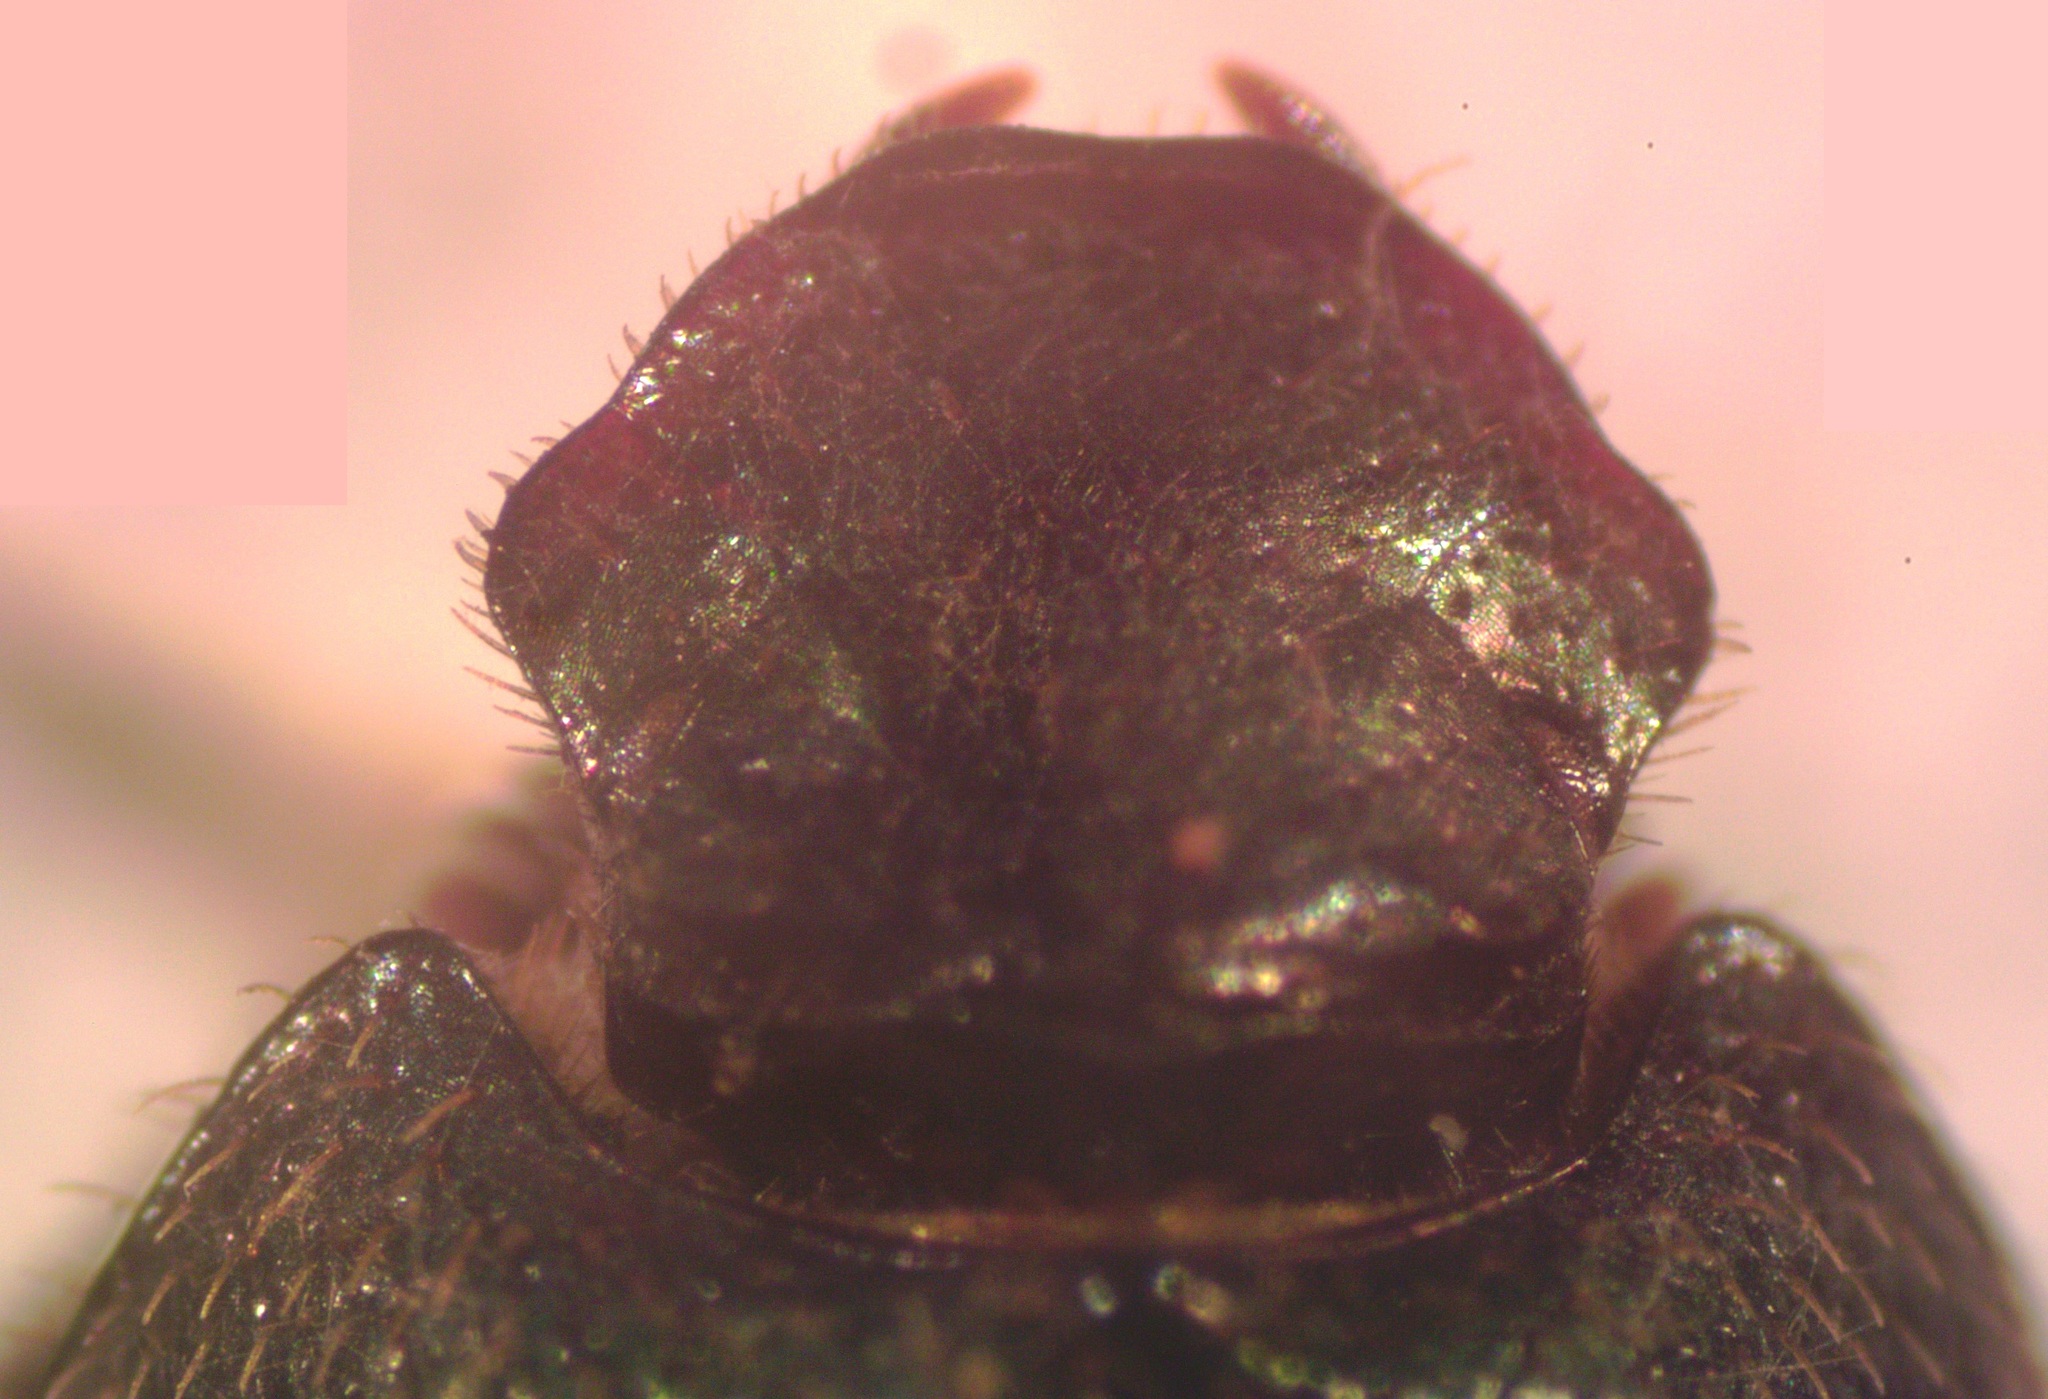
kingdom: Animalia
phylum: Arthropoda
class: Insecta
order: Coleoptera
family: Scarabaeidae
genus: Onthophagus
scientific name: Onthophagus landolti
